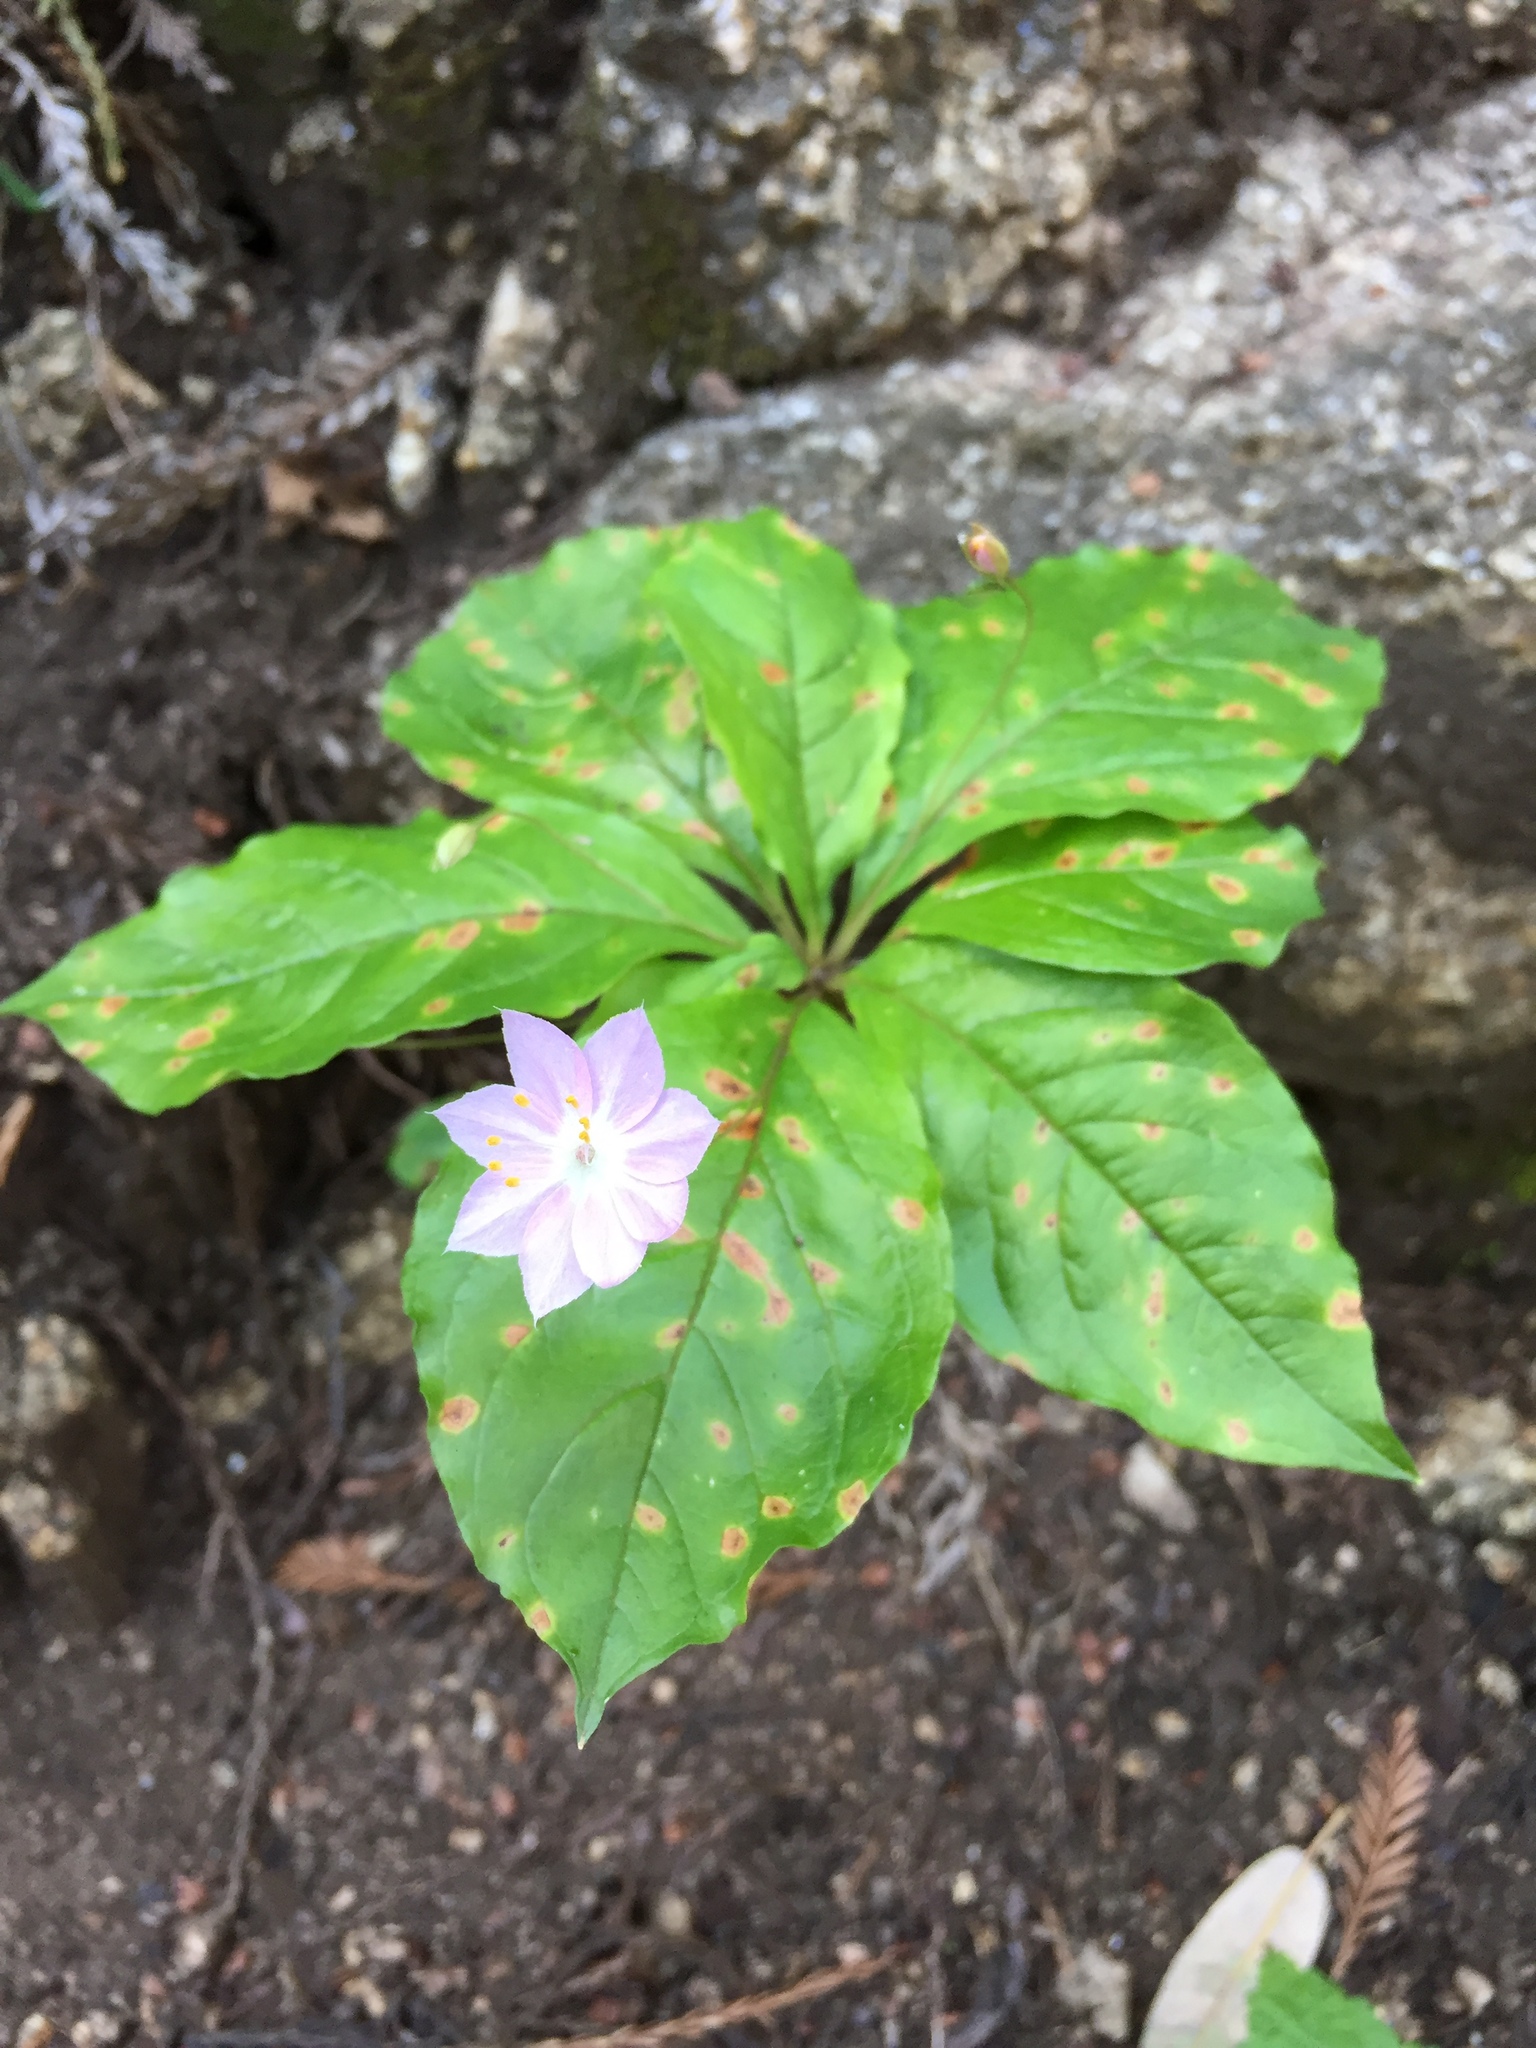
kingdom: Plantae
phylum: Tracheophyta
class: Magnoliopsida
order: Ericales
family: Primulaceae
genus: Lysimachia
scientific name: Lysimachia latifolia
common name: Pacific starflower
